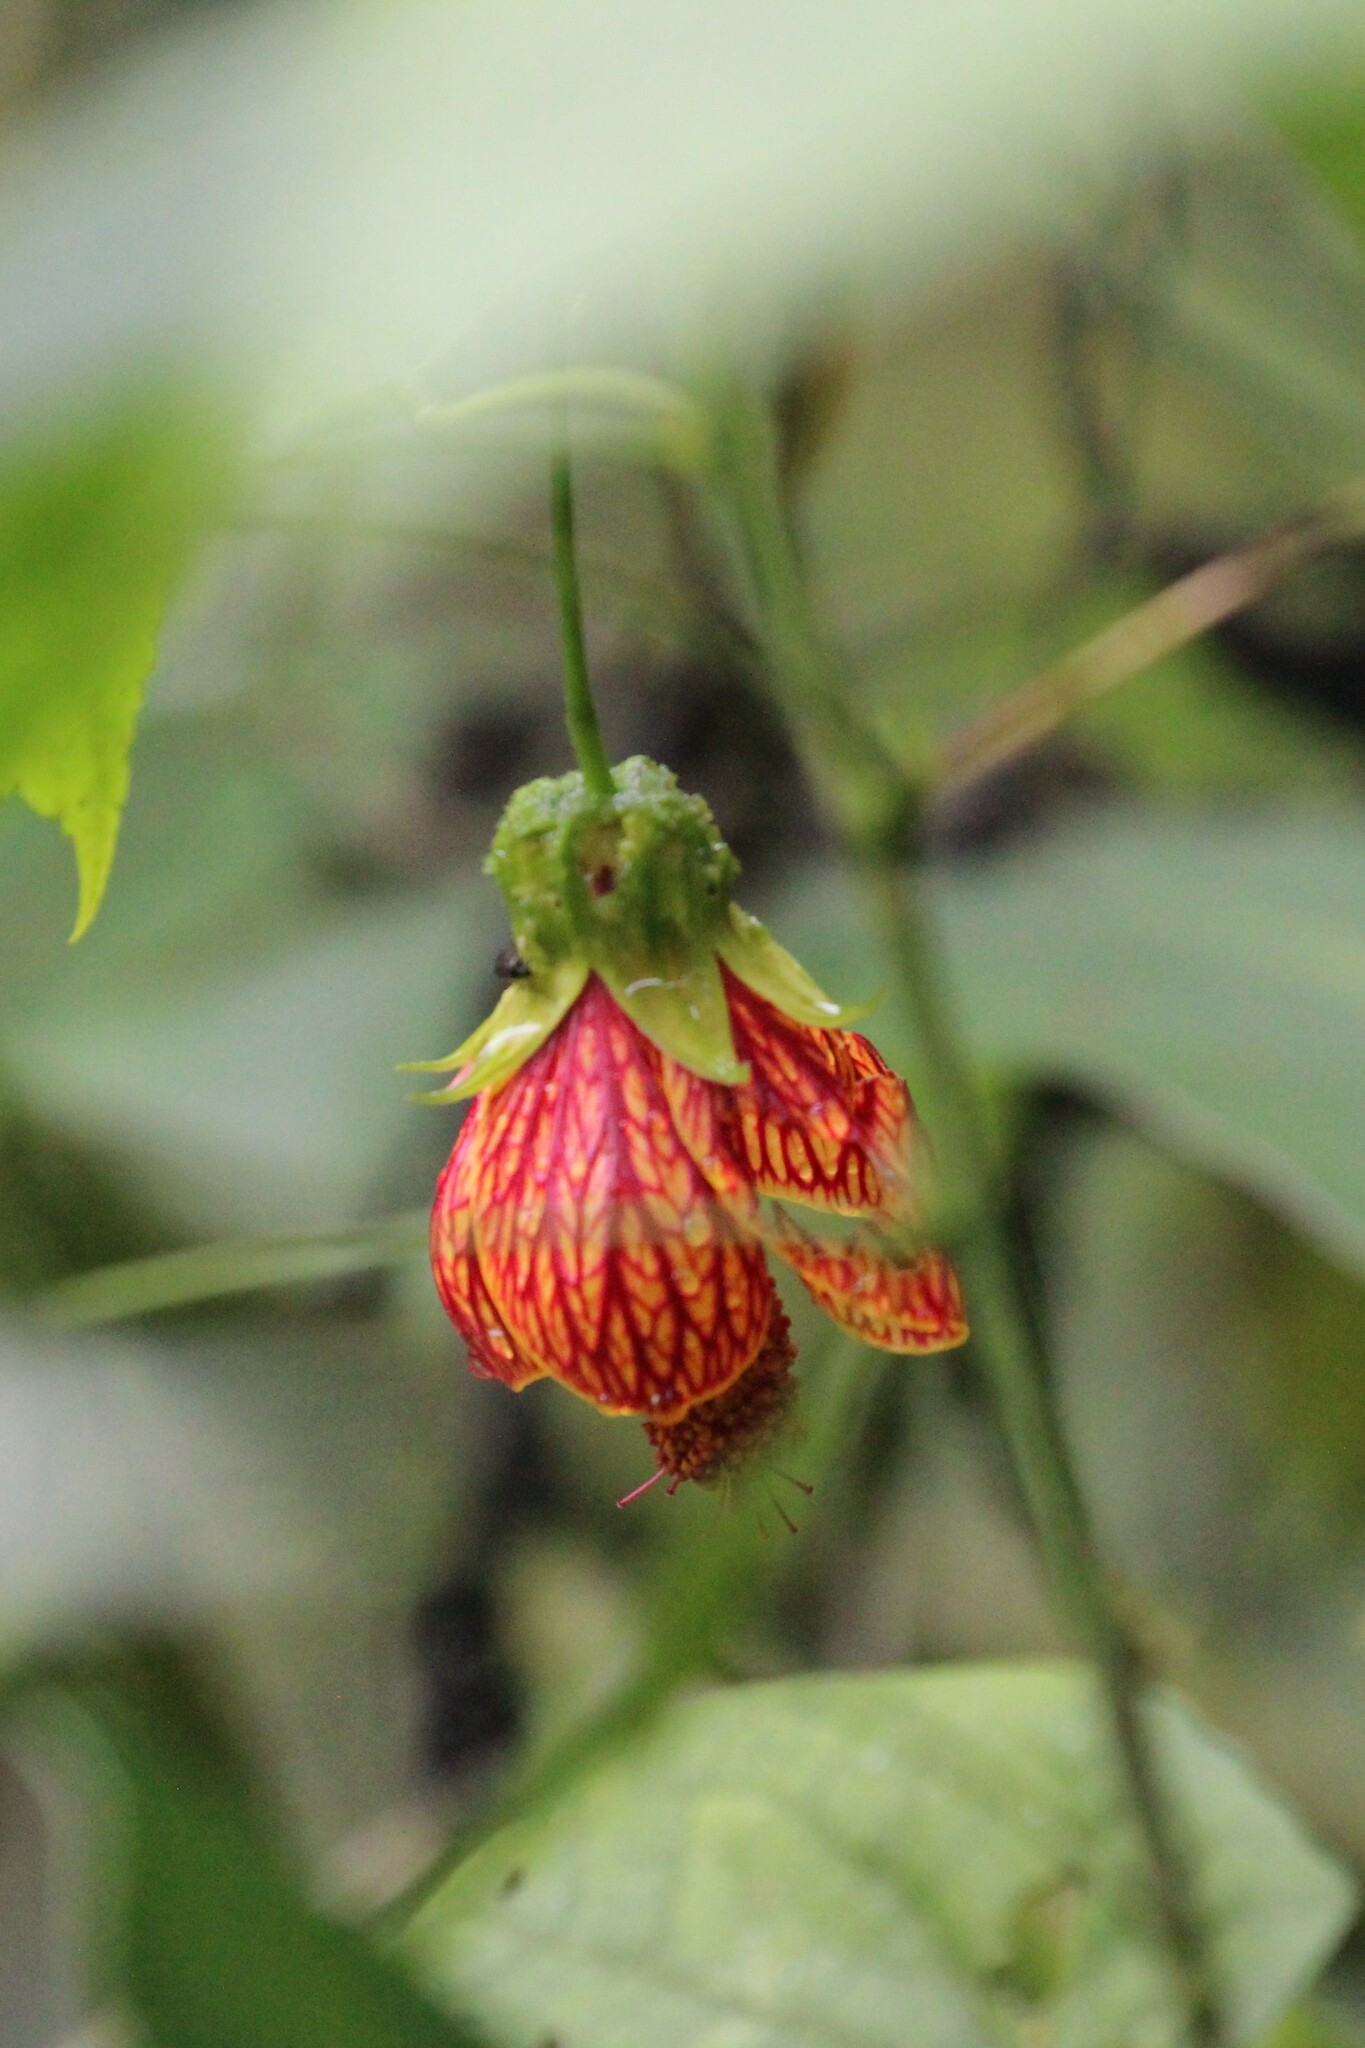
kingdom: Plantae
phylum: Tracheophyta
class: Magnoliopsida
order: Malvales
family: Malvaceae
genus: Callianthe
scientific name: Callianthe picta
